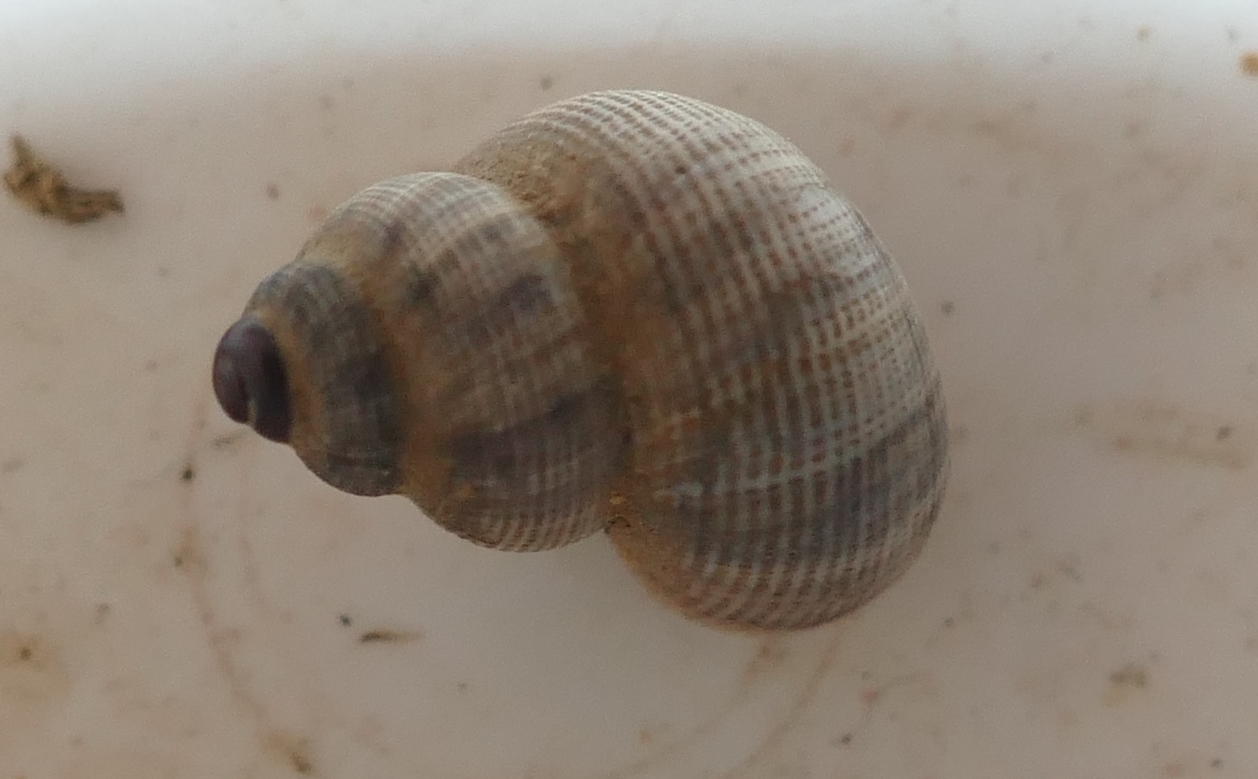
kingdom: Animalia
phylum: Mollusca
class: Gastropoda
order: Littorinimorpha
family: Pomatiidae
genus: Pomatias
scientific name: Pomatias elegans
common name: Red-mouthed snail
